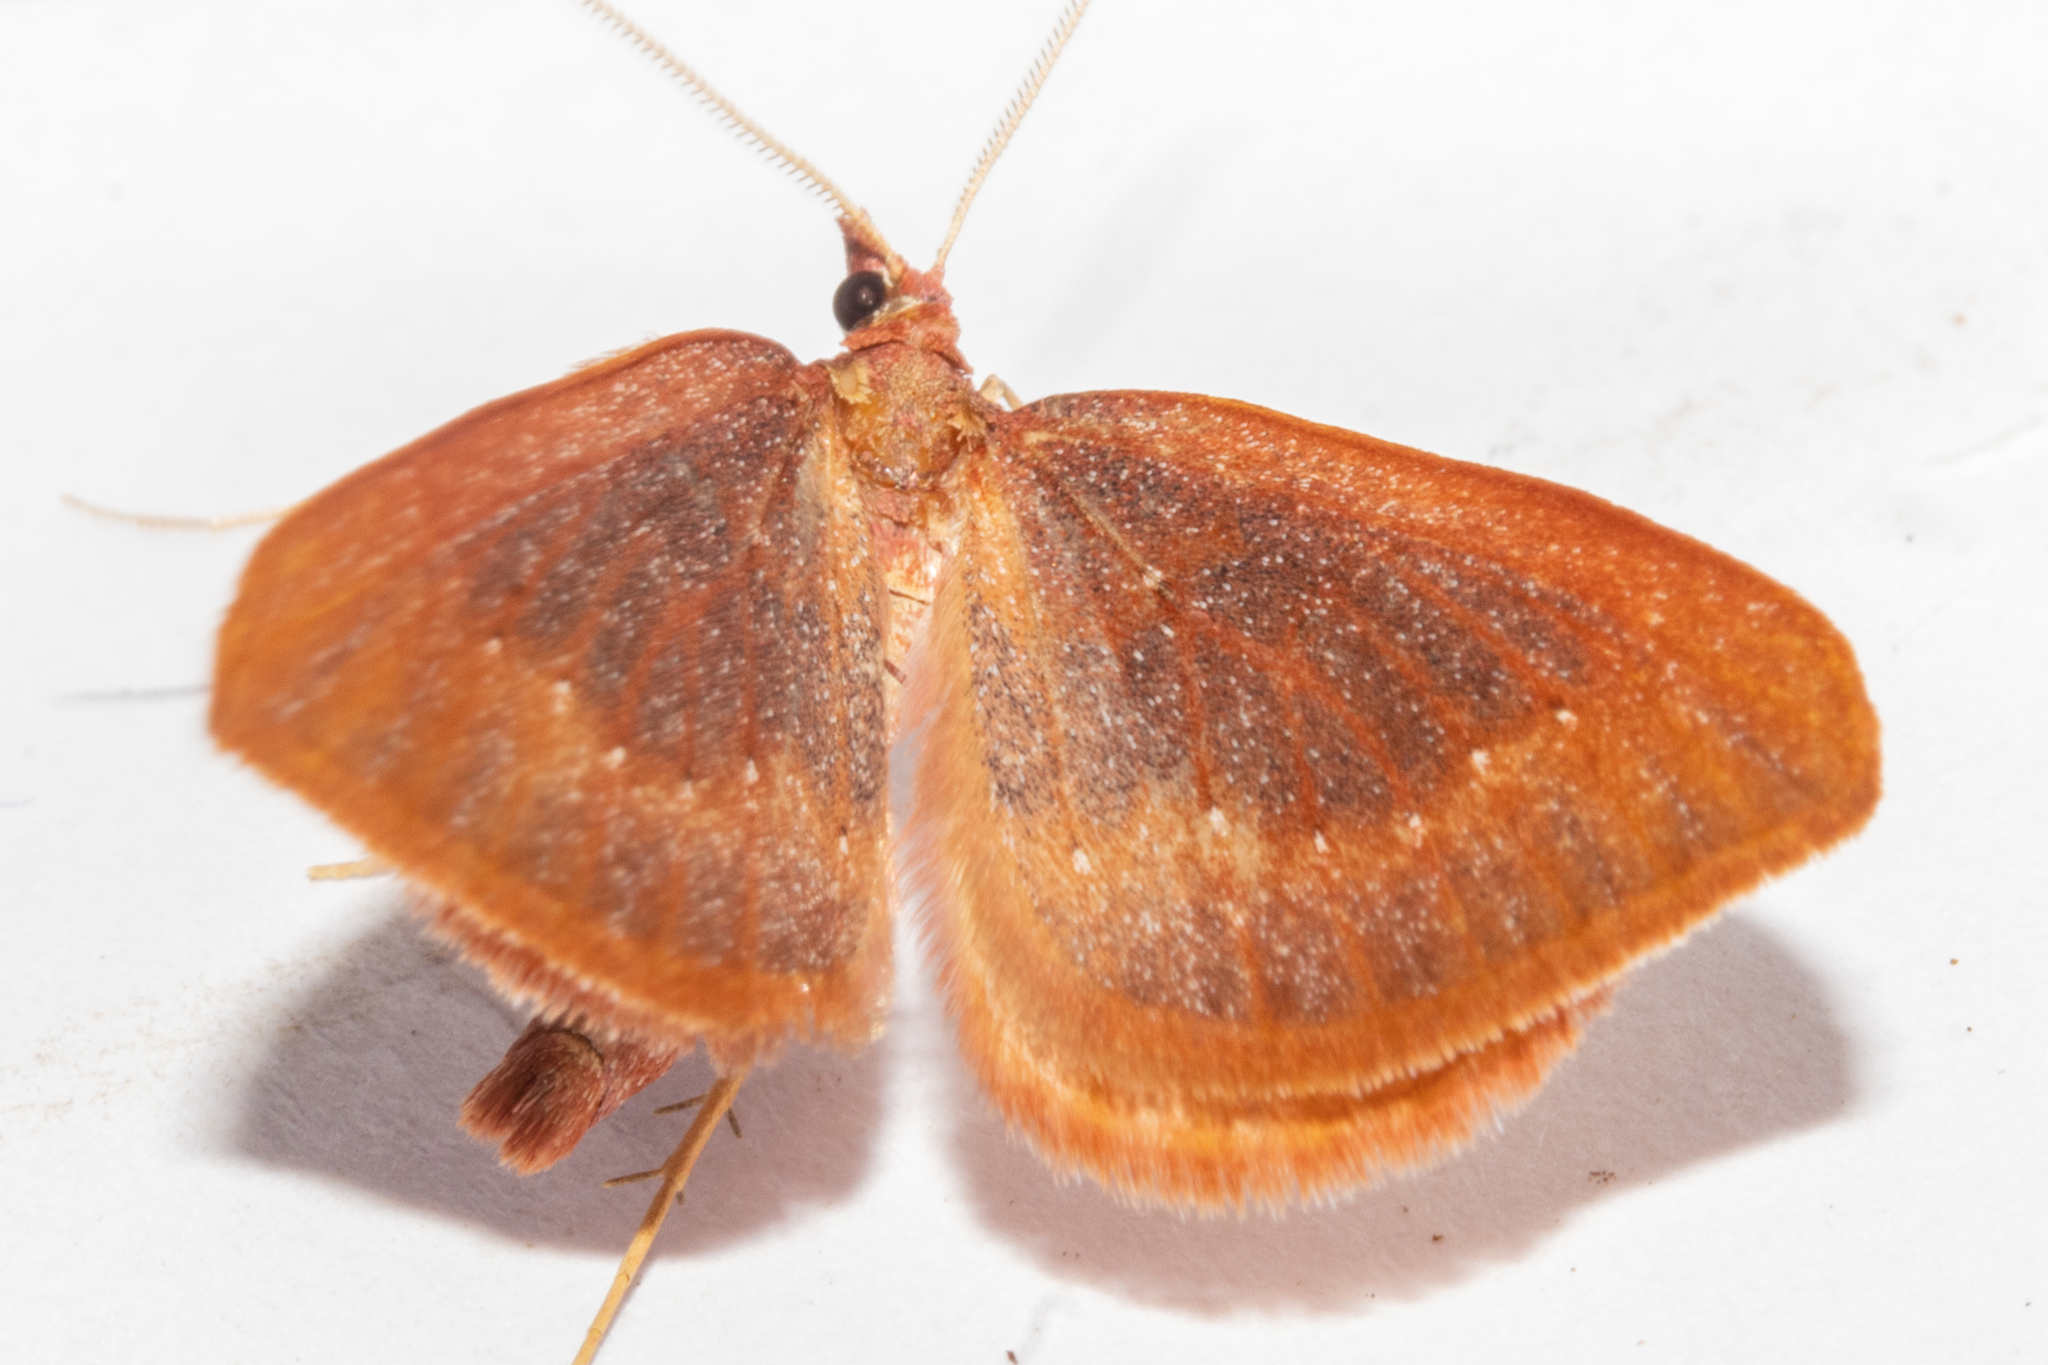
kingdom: Animalia
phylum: Arthropoda
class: Insecta
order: Lepidoptera
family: Geometridae
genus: Xanthorhoe
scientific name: Xanthorhoe occulta
